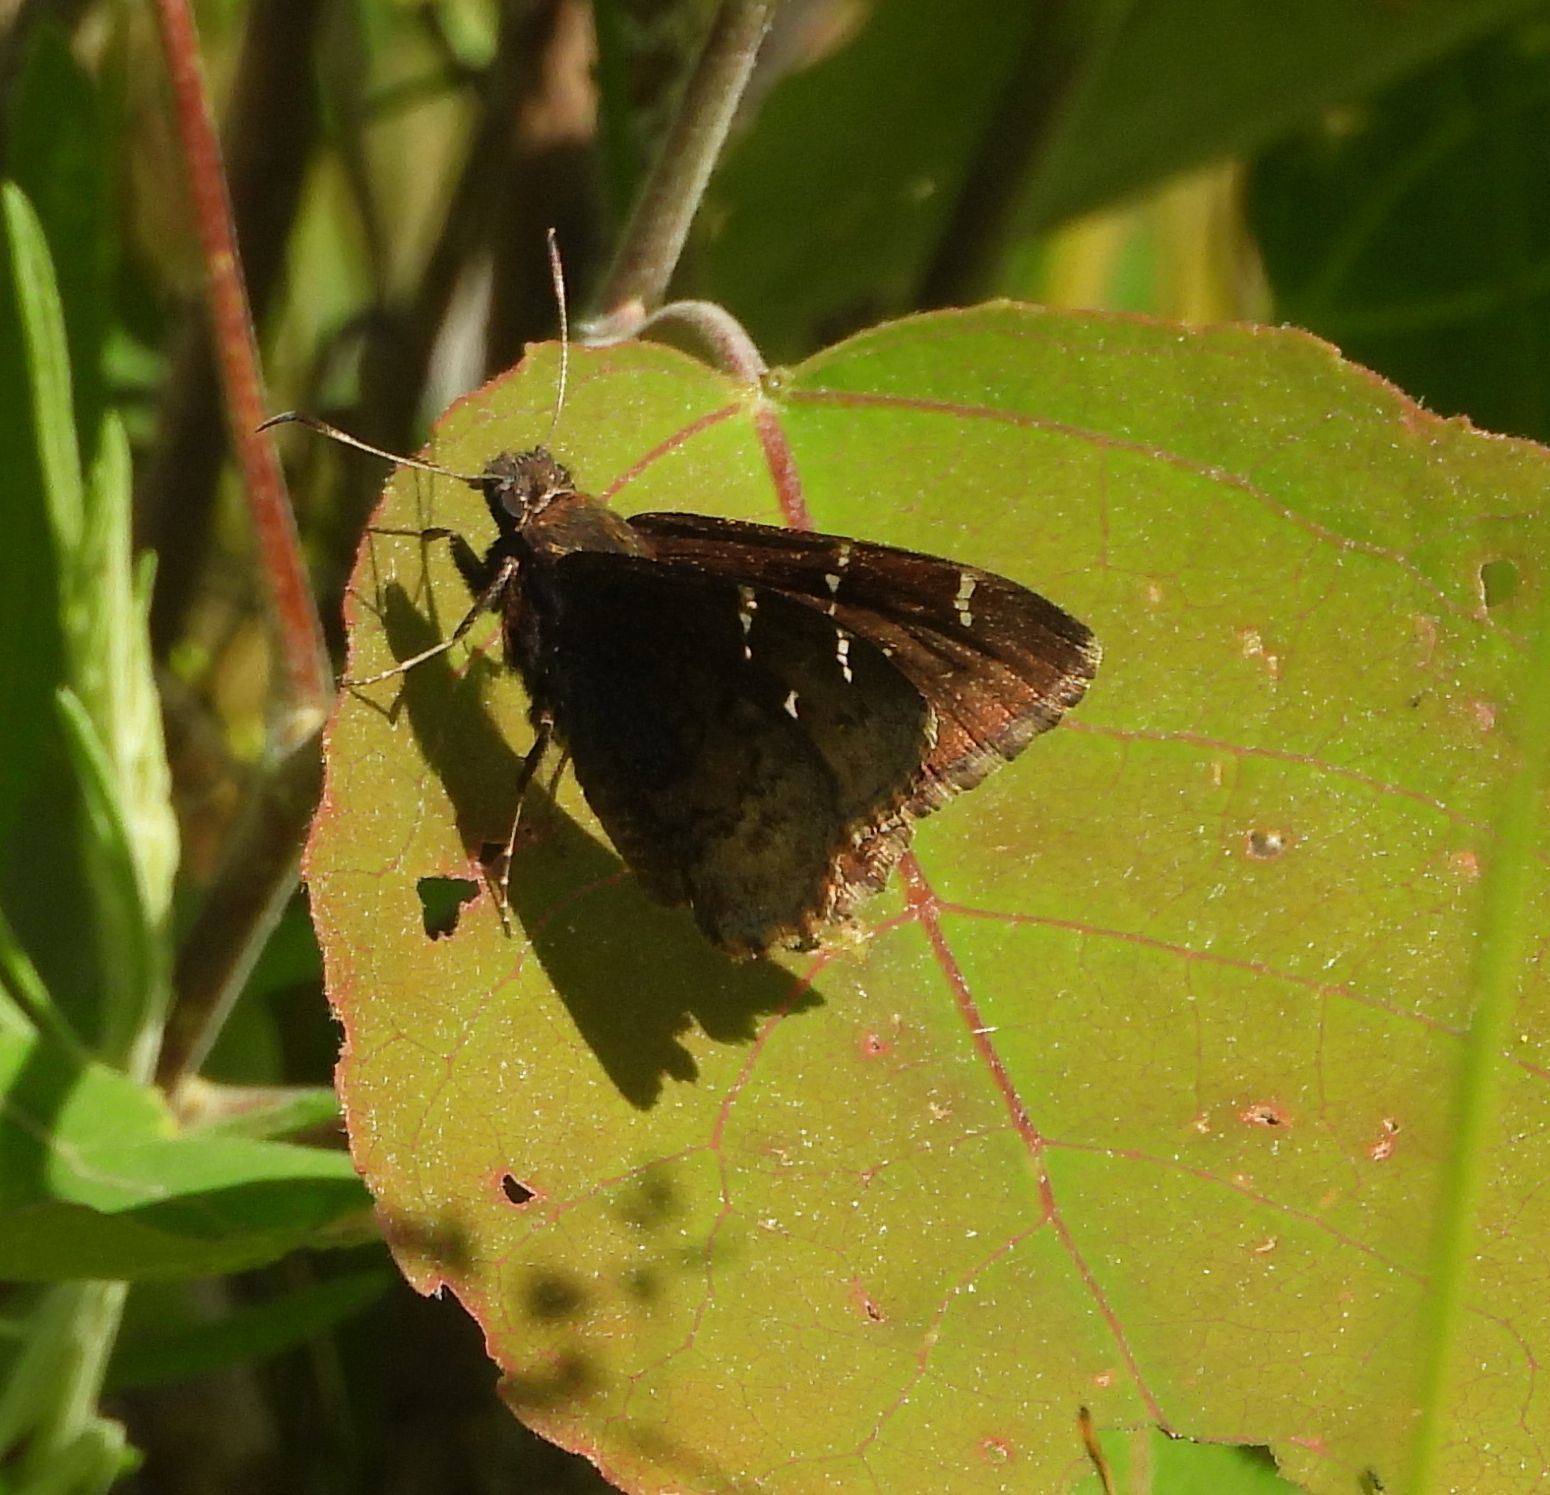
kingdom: Animalia
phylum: Arthropoda
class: Insecta
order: Lepidoptera
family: Hesperiidae
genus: Thorybes
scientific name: Thorybes pylades
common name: Northern cloudywing
